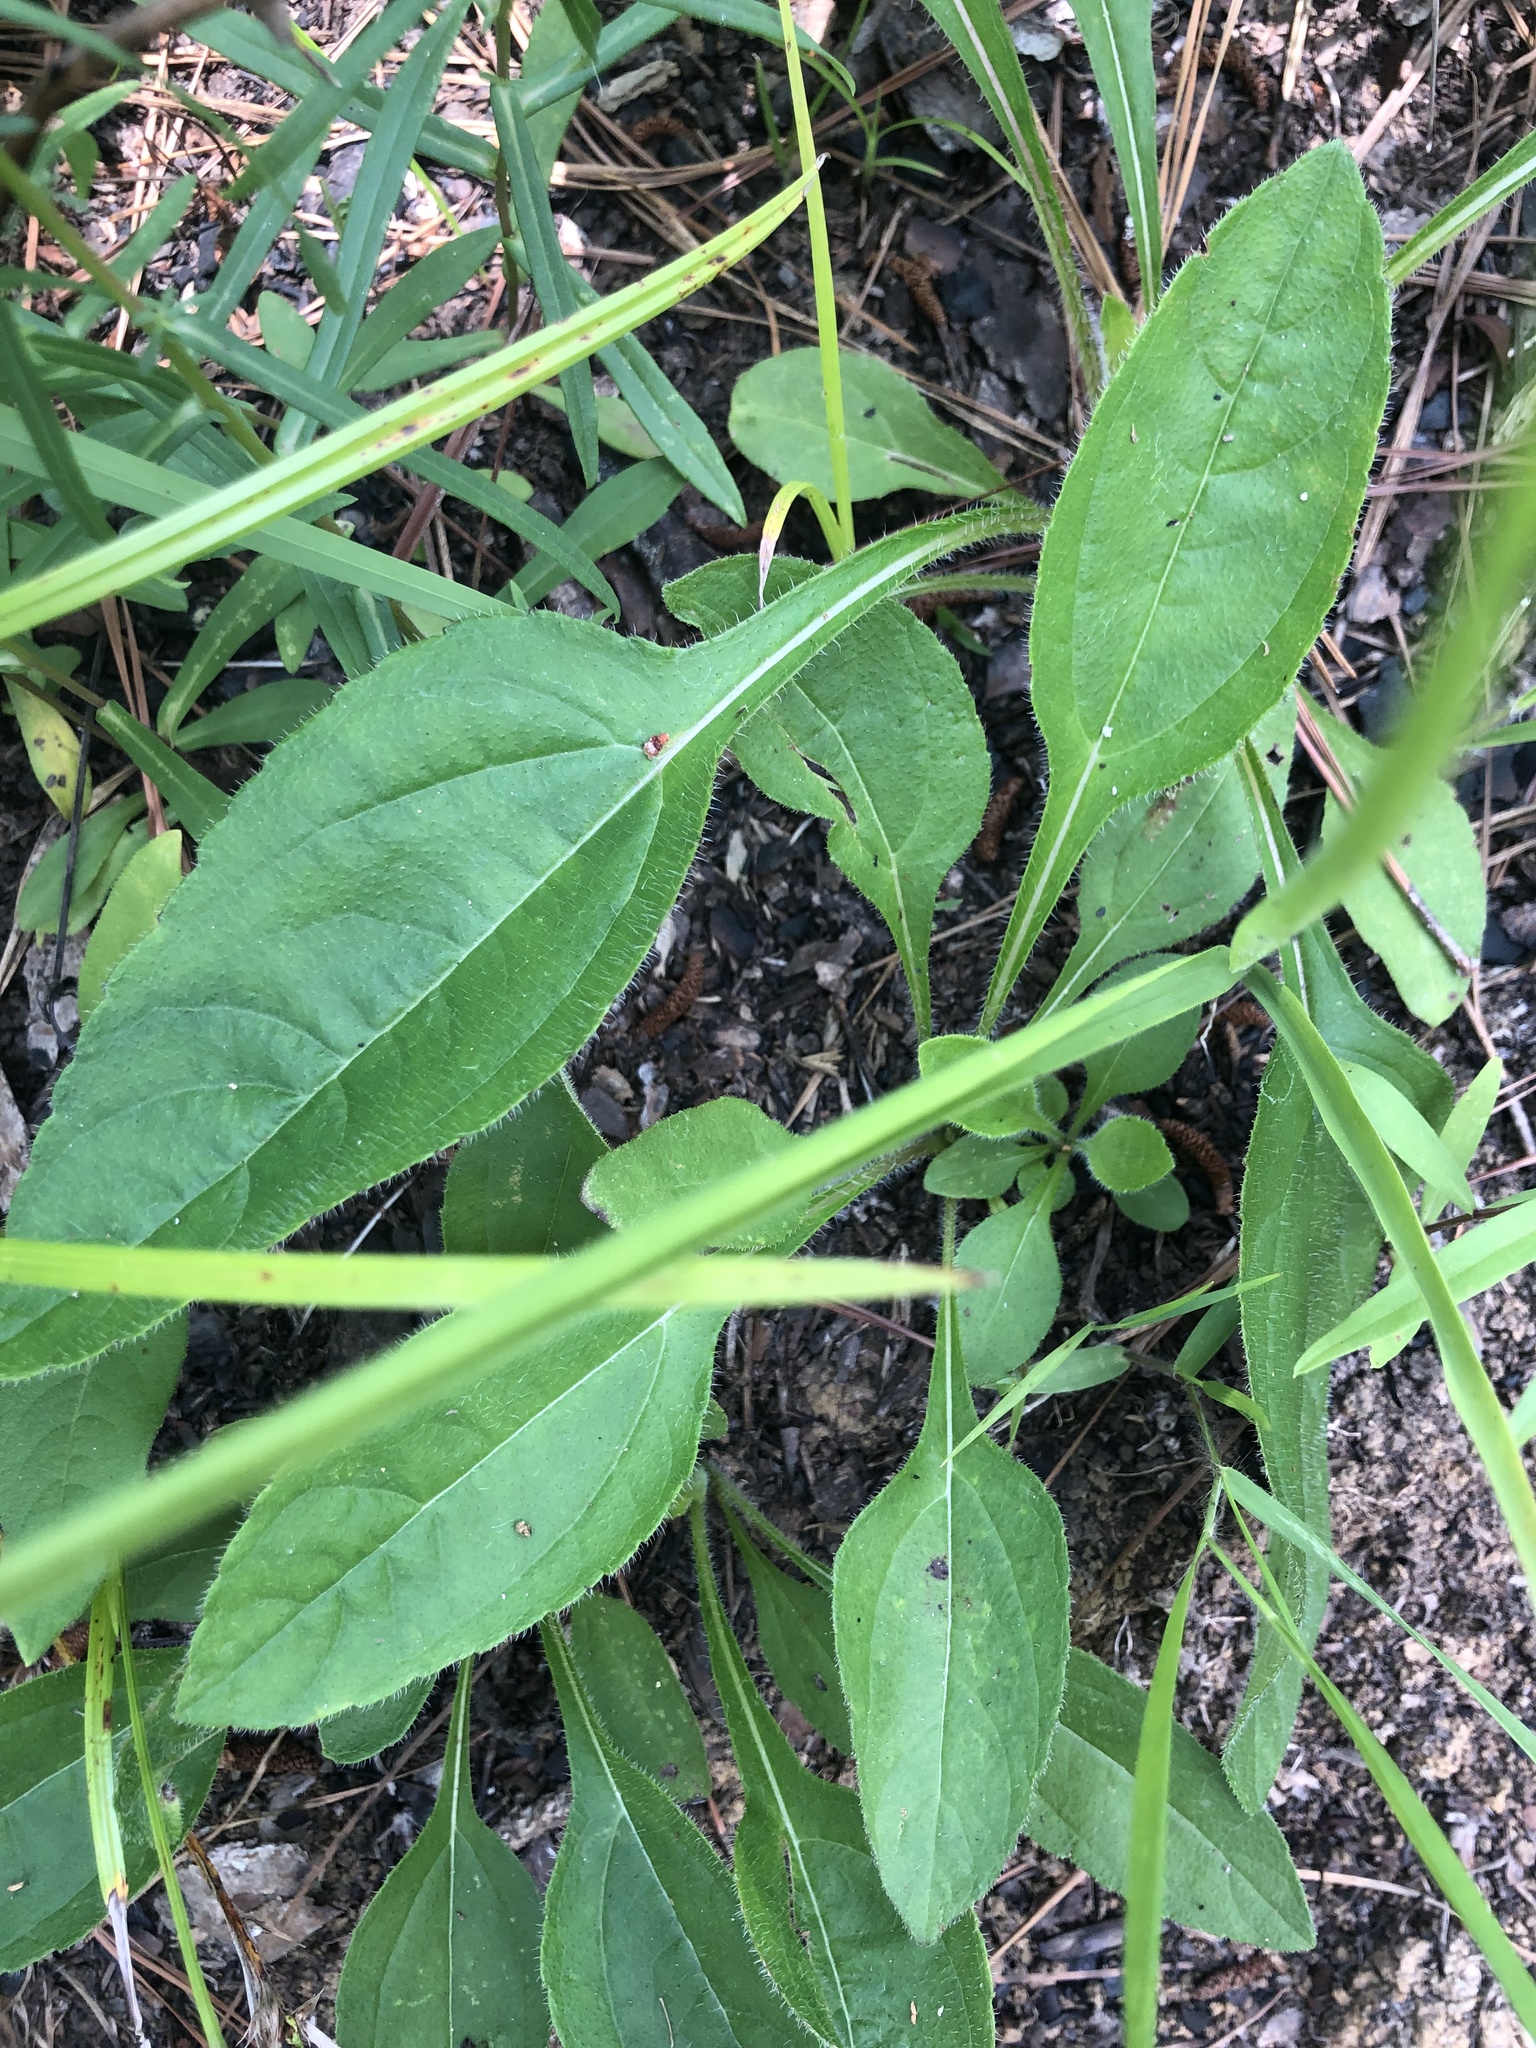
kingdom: Plantae
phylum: Tracheophyta
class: Magnoliopsida
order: Asterales
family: Asteraceae
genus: Helianthus
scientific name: Helianthus atrorubens
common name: Dark-eyed sunflower
